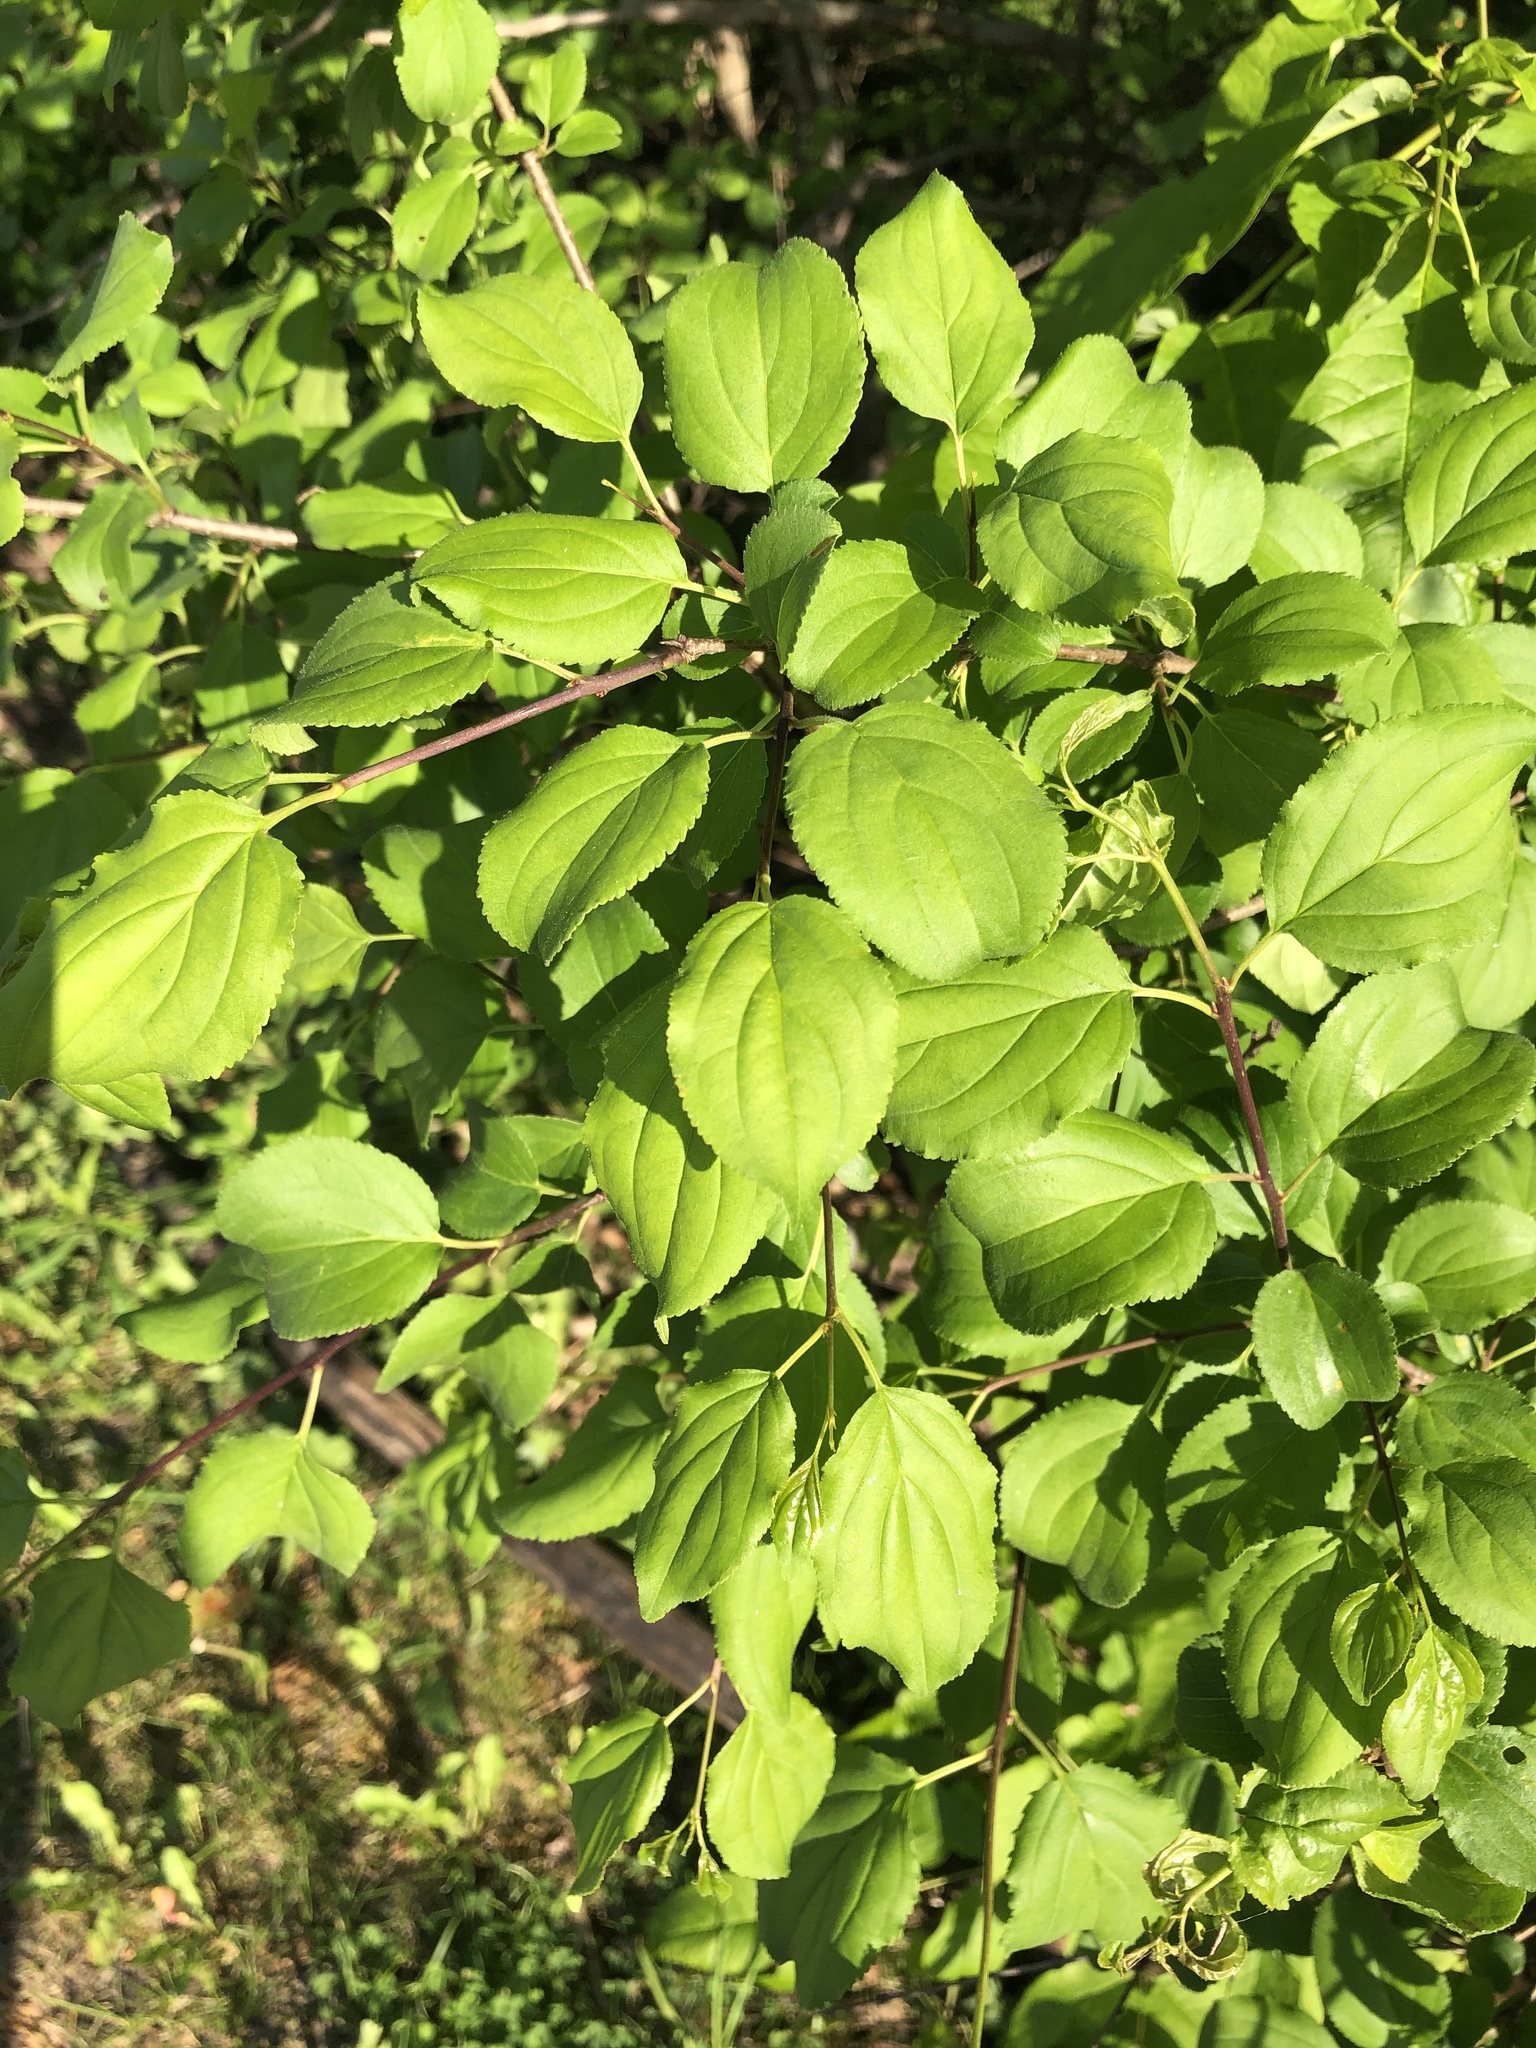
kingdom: Plantae
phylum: Tracheophyta
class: Magnoliopsida
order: Rosales
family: Rhamnaceae
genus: Rhamnus
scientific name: Rhamnus cathartica
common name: Common buckthorn
